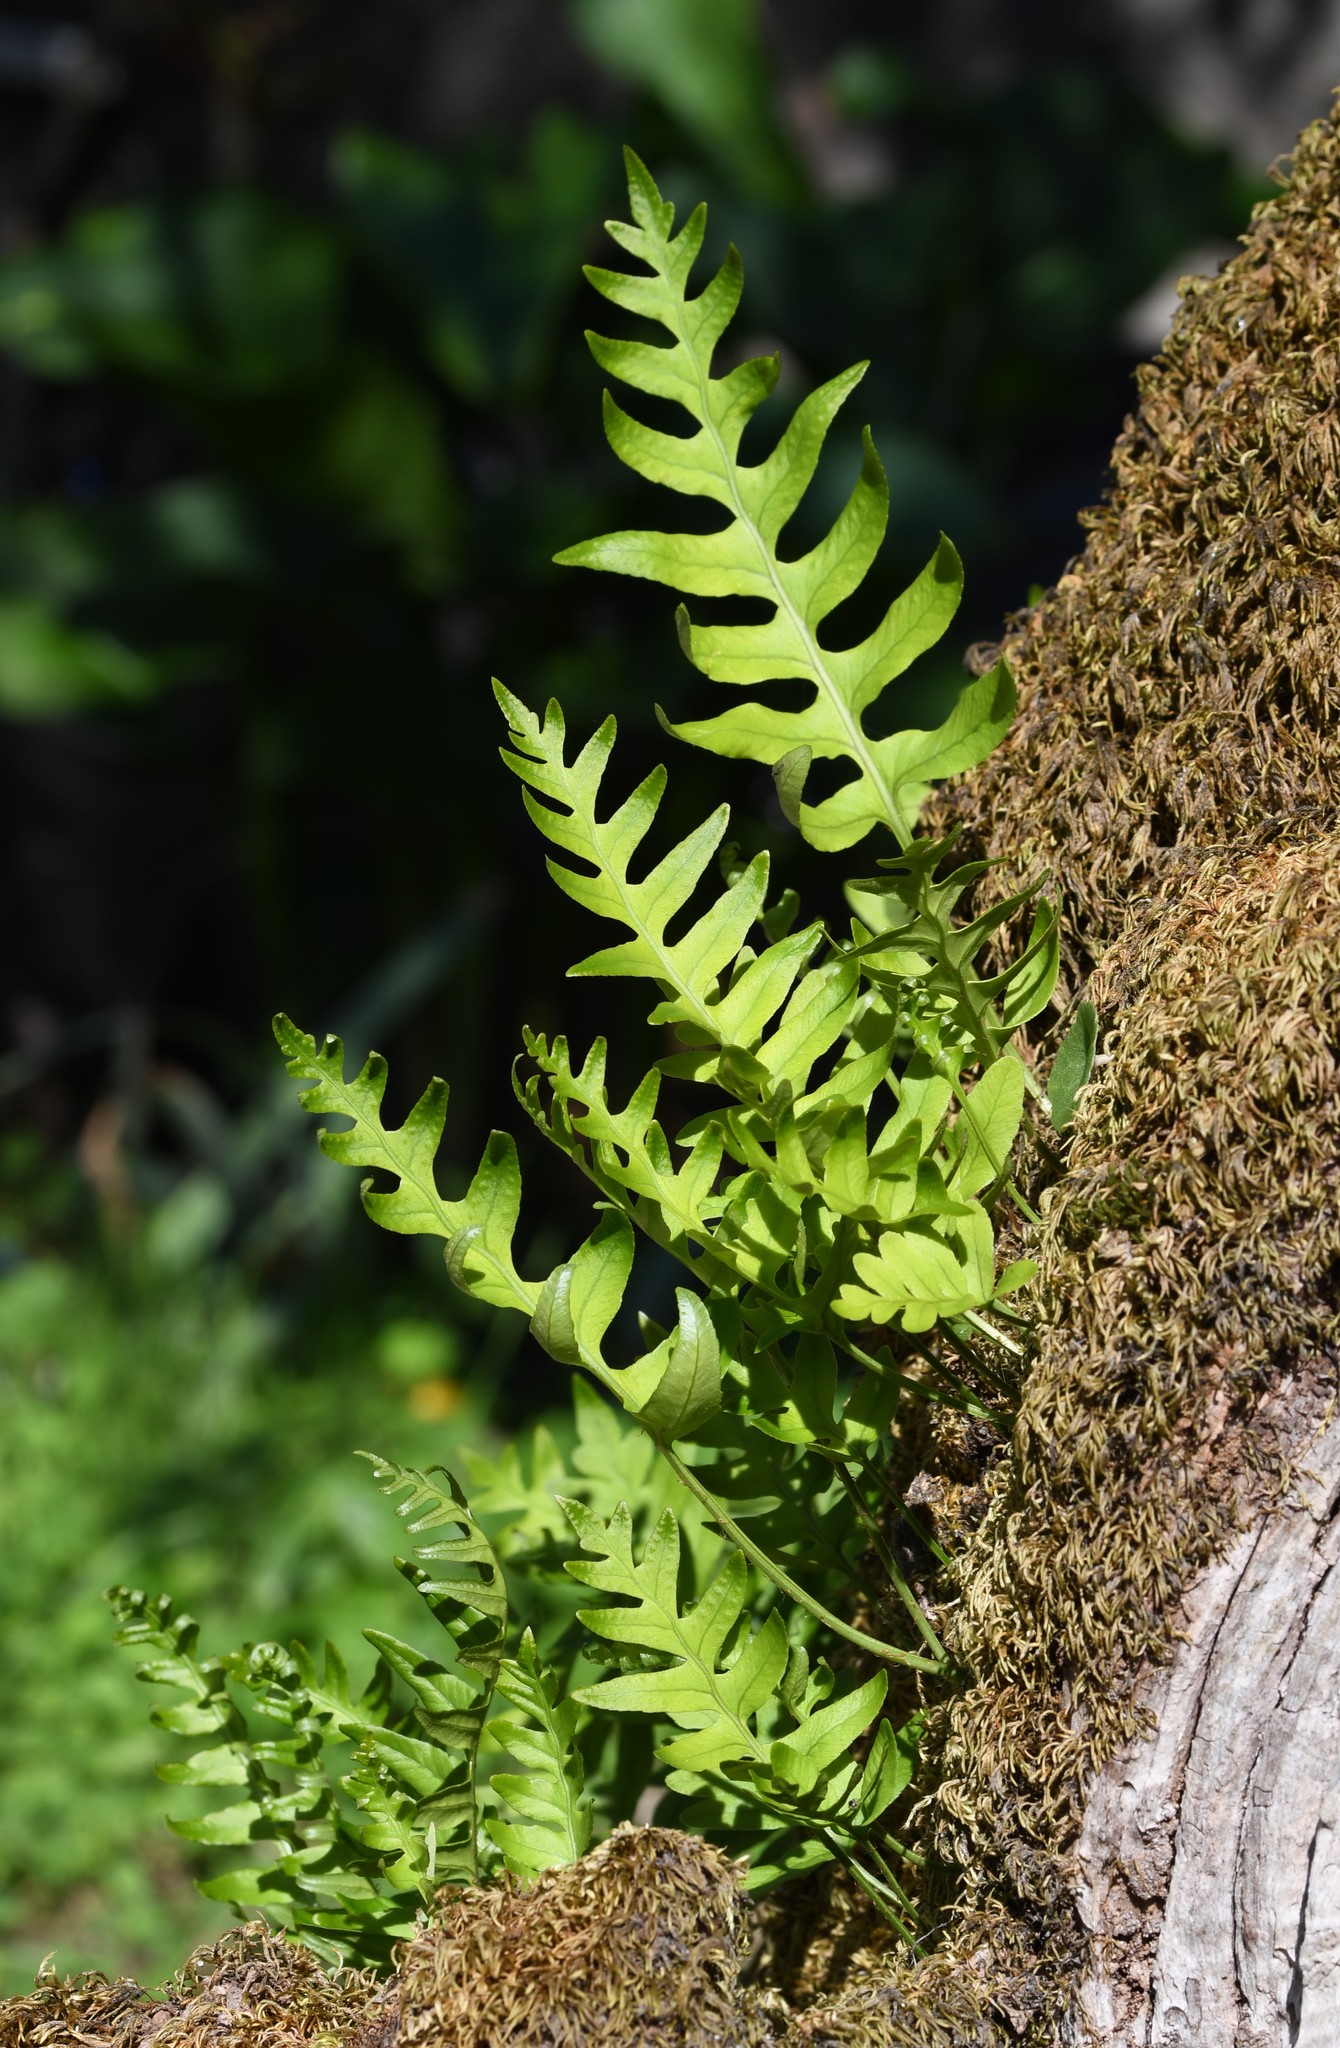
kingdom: Plantae
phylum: Tracheophyta
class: Polypodiopsida
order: Polypodiales
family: Polypodiaceae
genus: Polypodium
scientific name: Polypodium vulgare
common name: Common polypody
